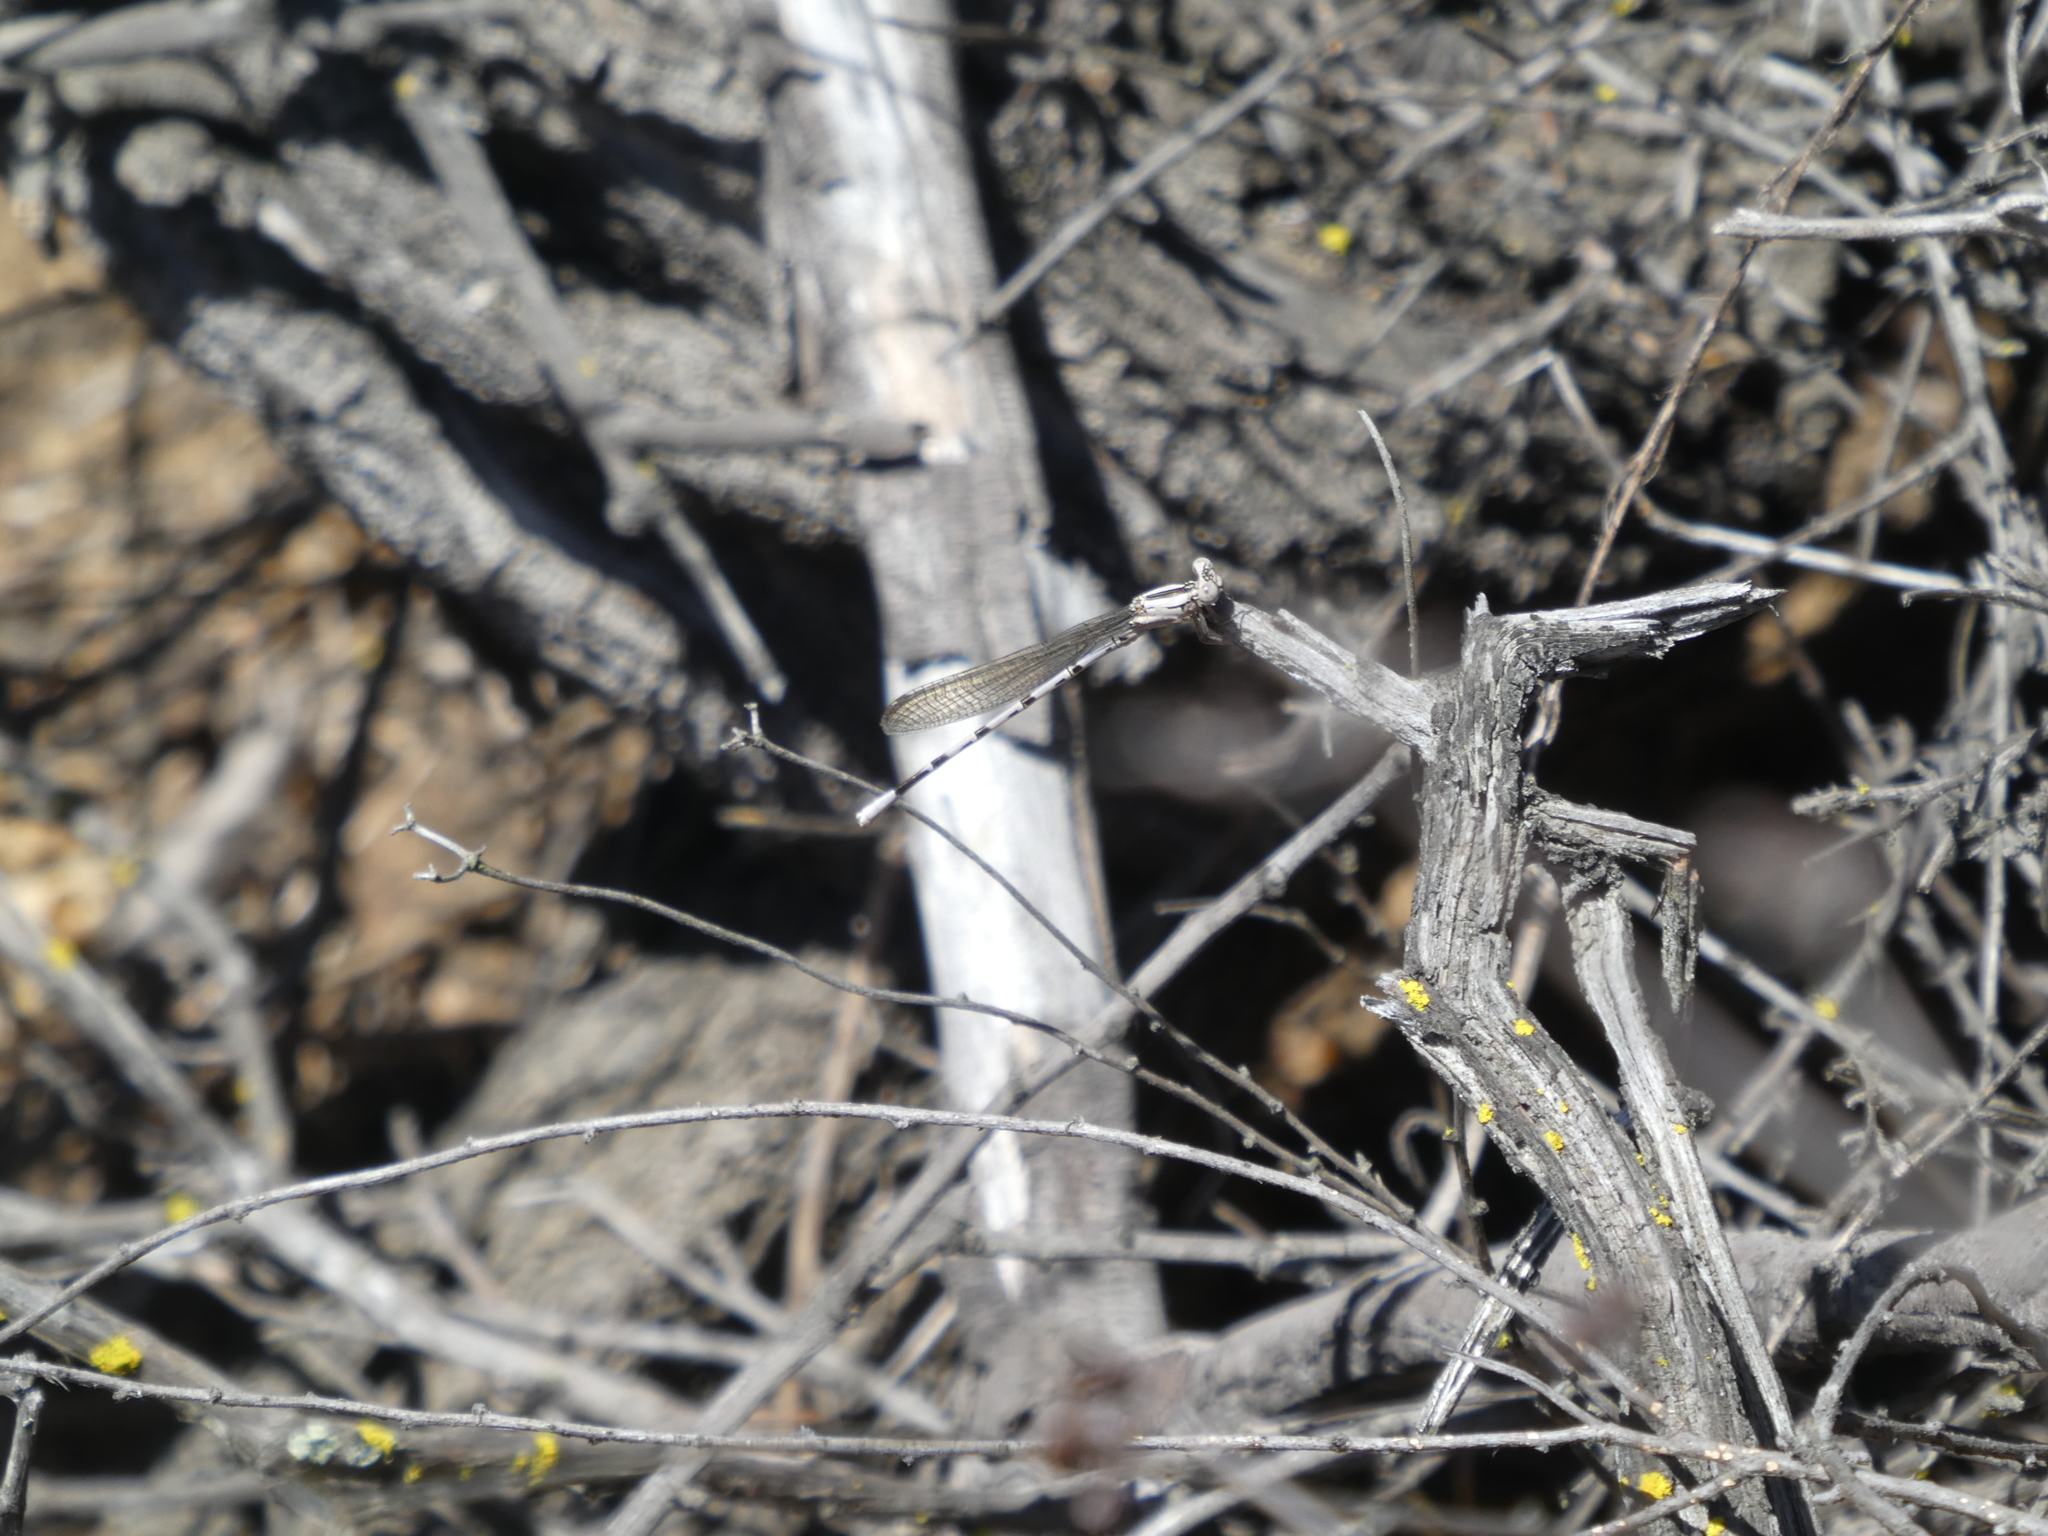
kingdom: Animalia
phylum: Arthropoda
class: Insecta
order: Odonata
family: Coenagrionidae
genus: Argia
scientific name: Argia vivida
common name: Vivid dancer
